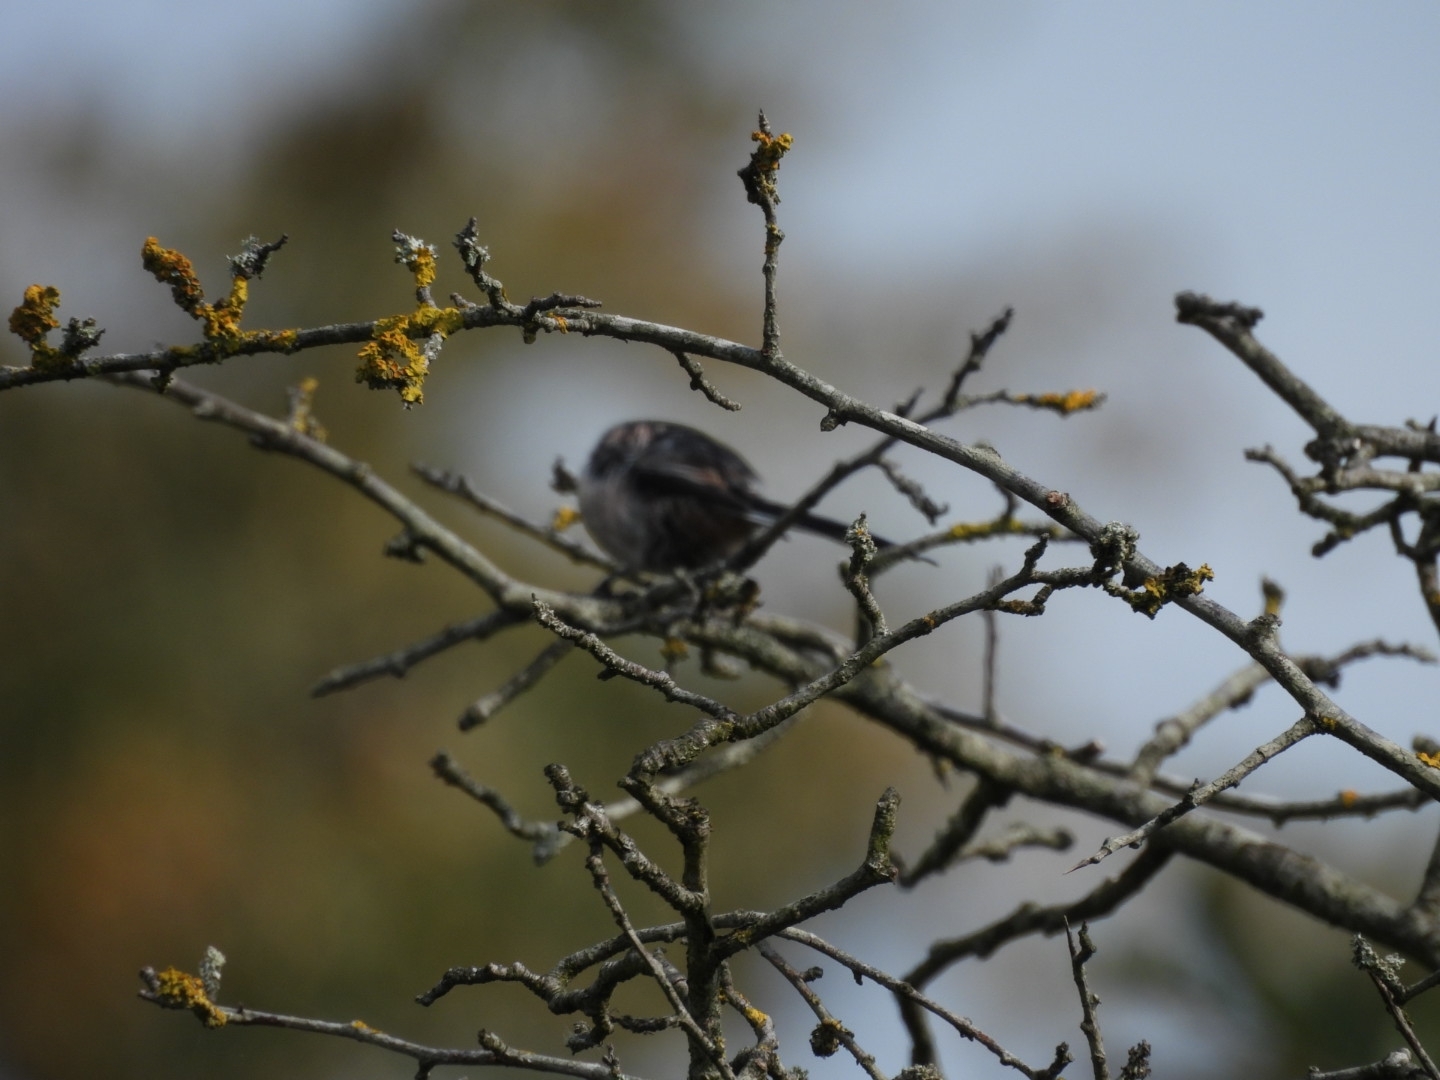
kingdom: Animalia
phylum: Chordata
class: Aves
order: Passeriformes
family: Aegithalidae
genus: Aegithalos
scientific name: Aegithalos caudatus
